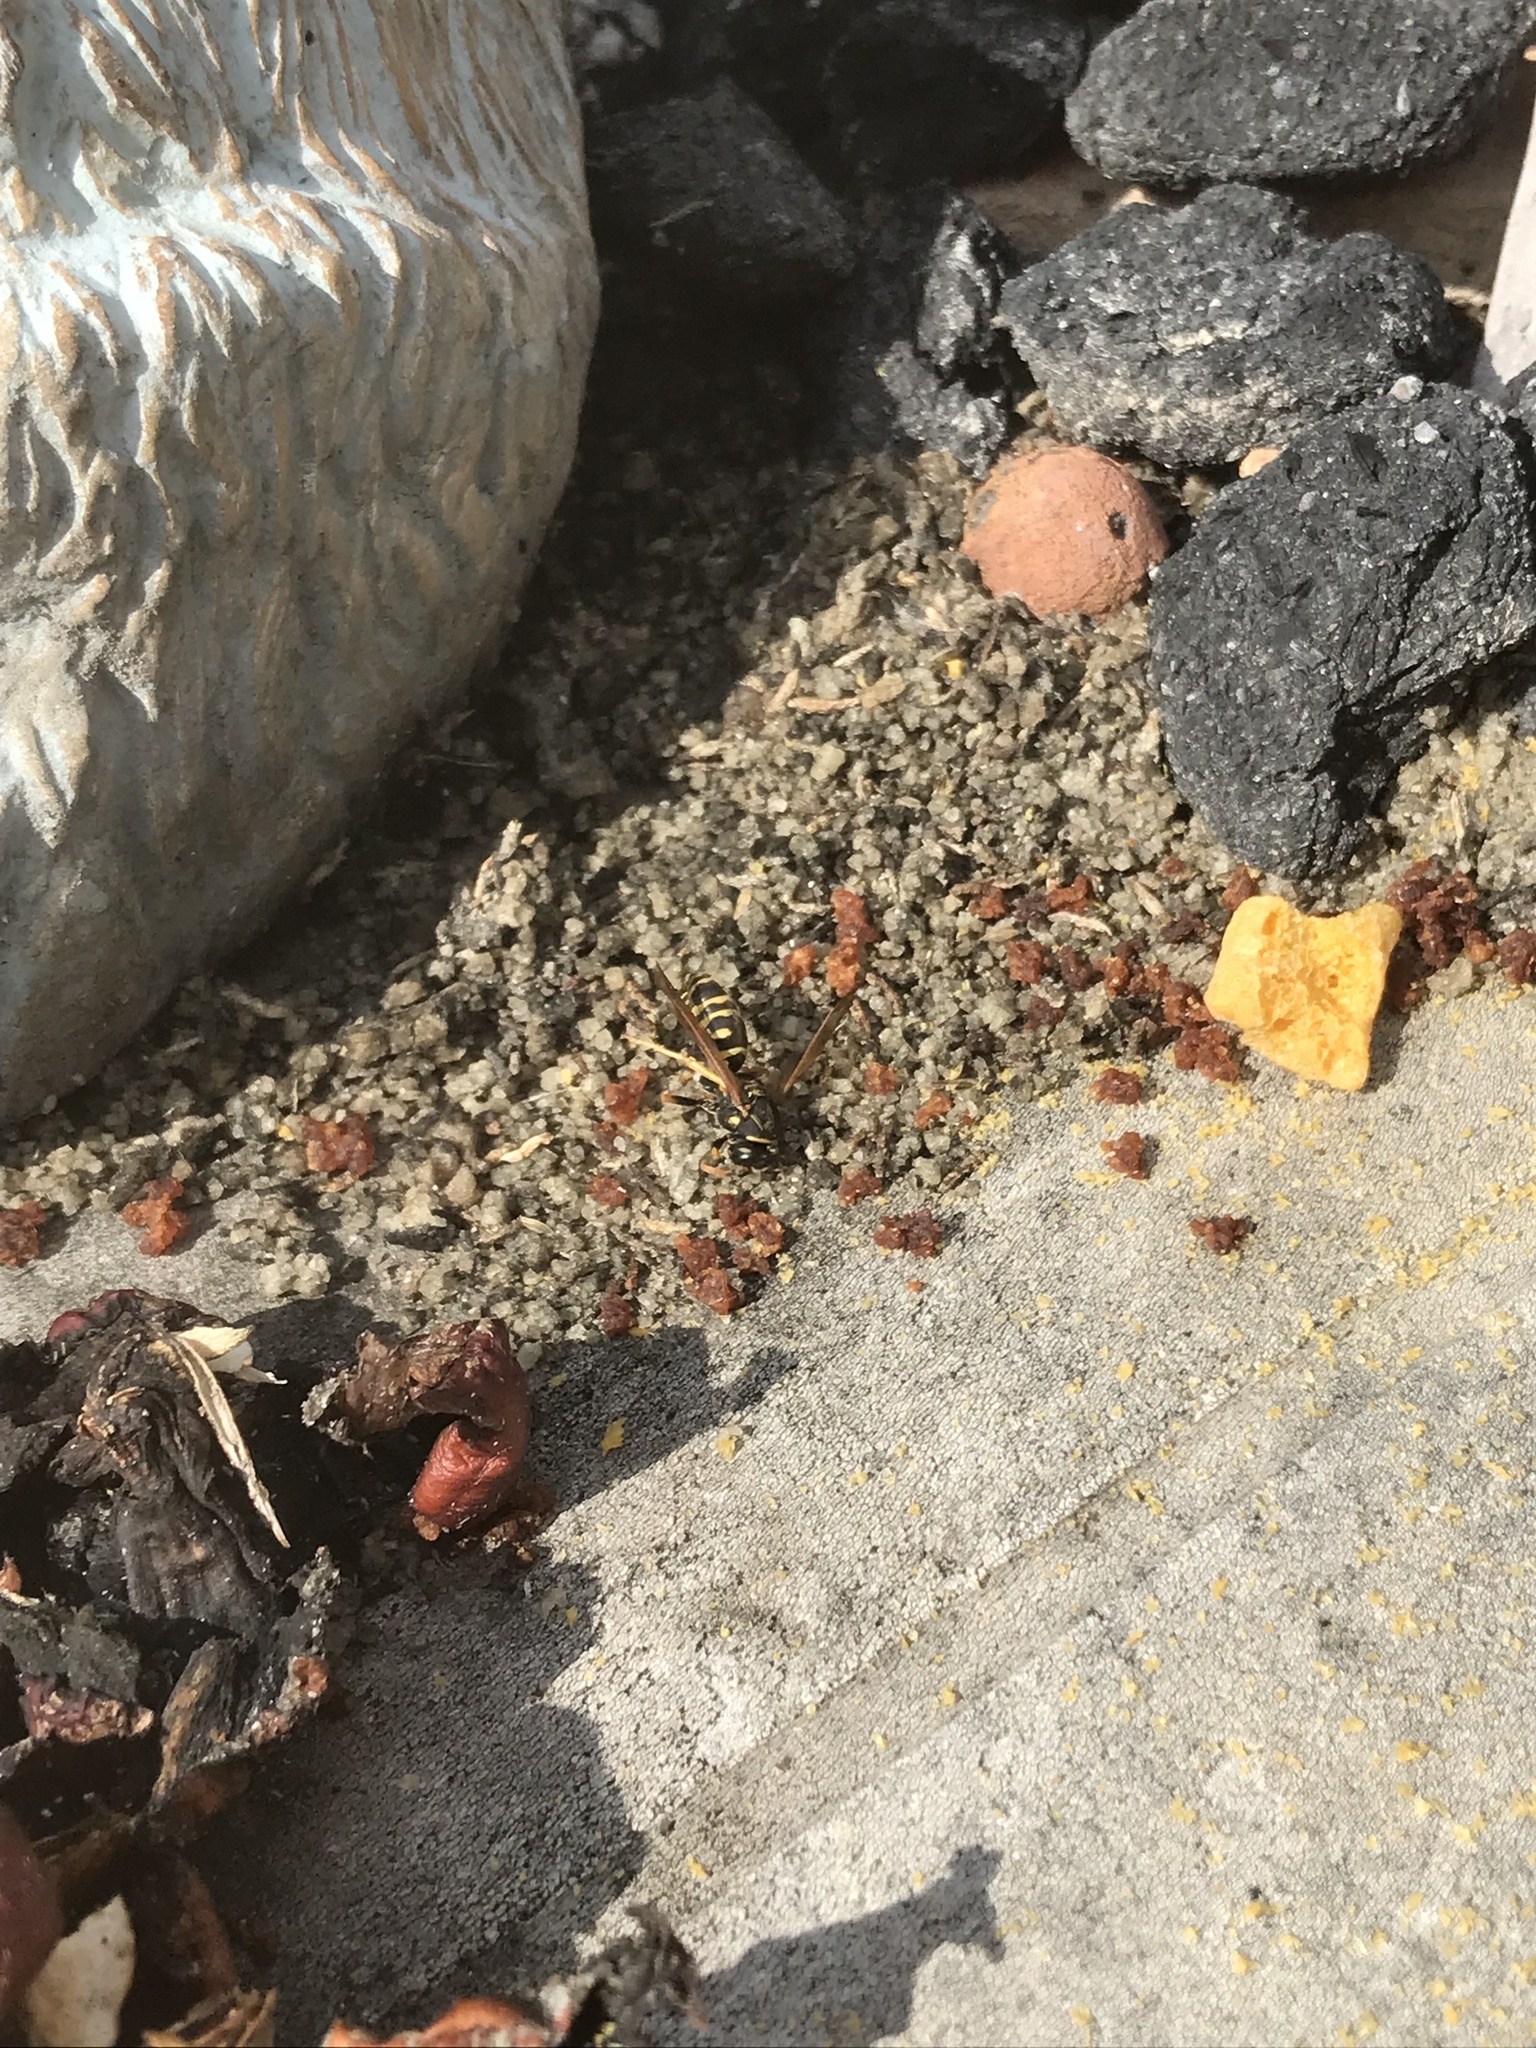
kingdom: Animalia
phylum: Arthropoda
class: Insecta
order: Hymenoptera
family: Eumenidae
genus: Polistes
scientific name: Polistes dominula
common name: Paper wasp
